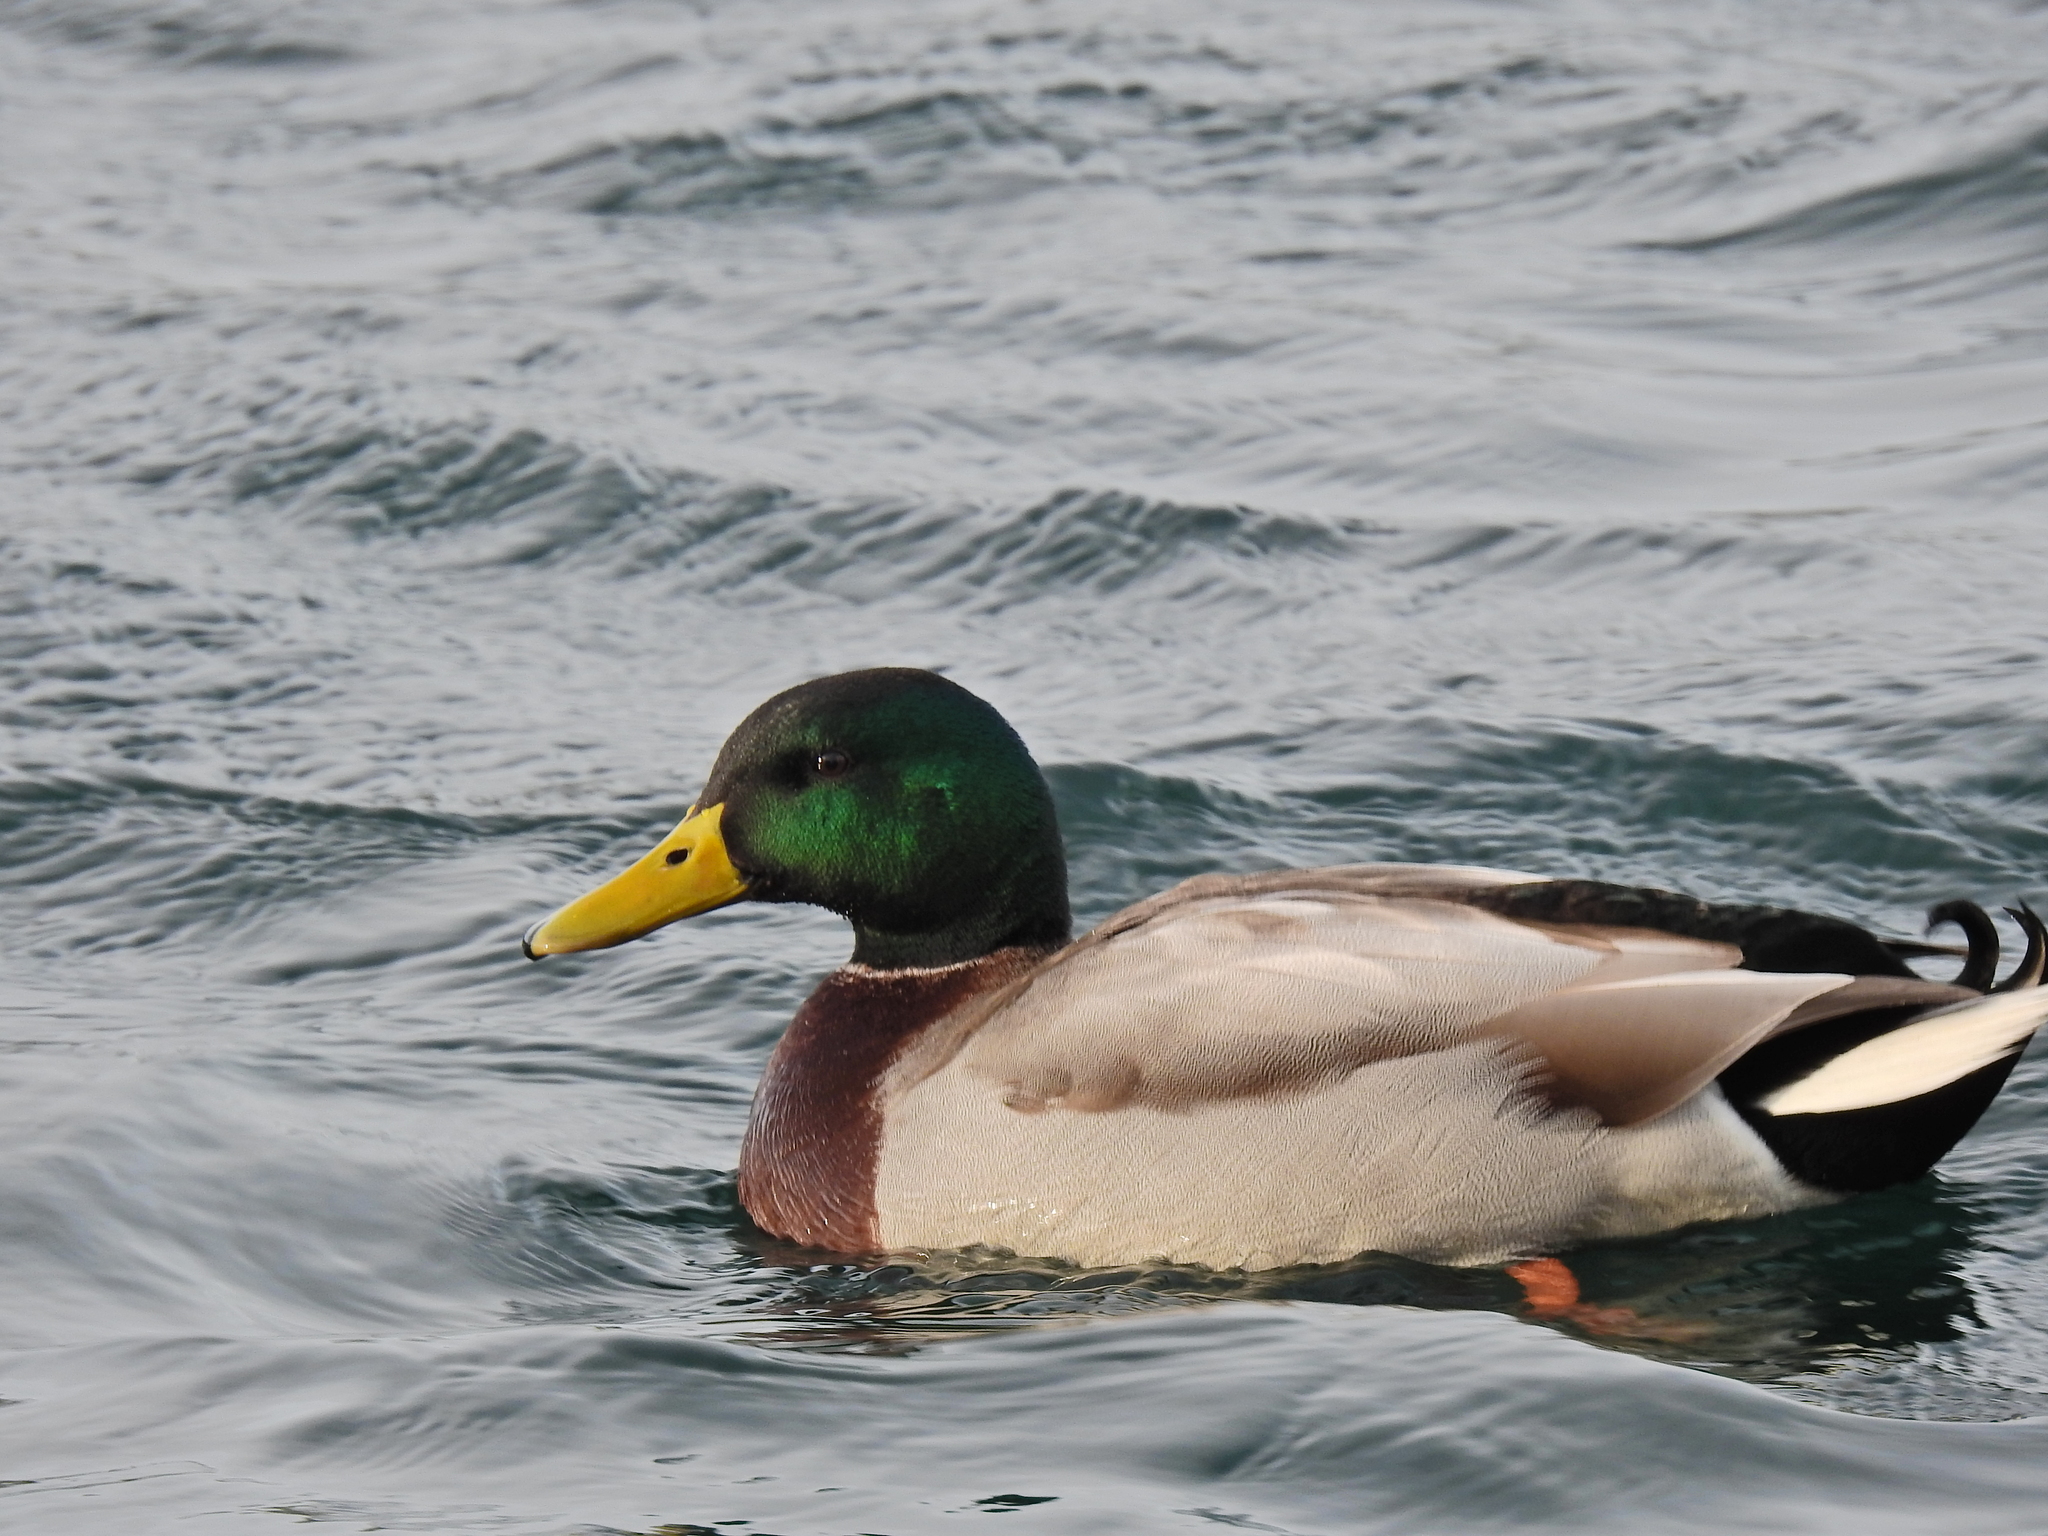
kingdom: Animalia
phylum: Chordata
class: Aves
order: Anseriformes
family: Anatidae
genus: Anas
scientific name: Anas platyrhynchos
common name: Mallard
